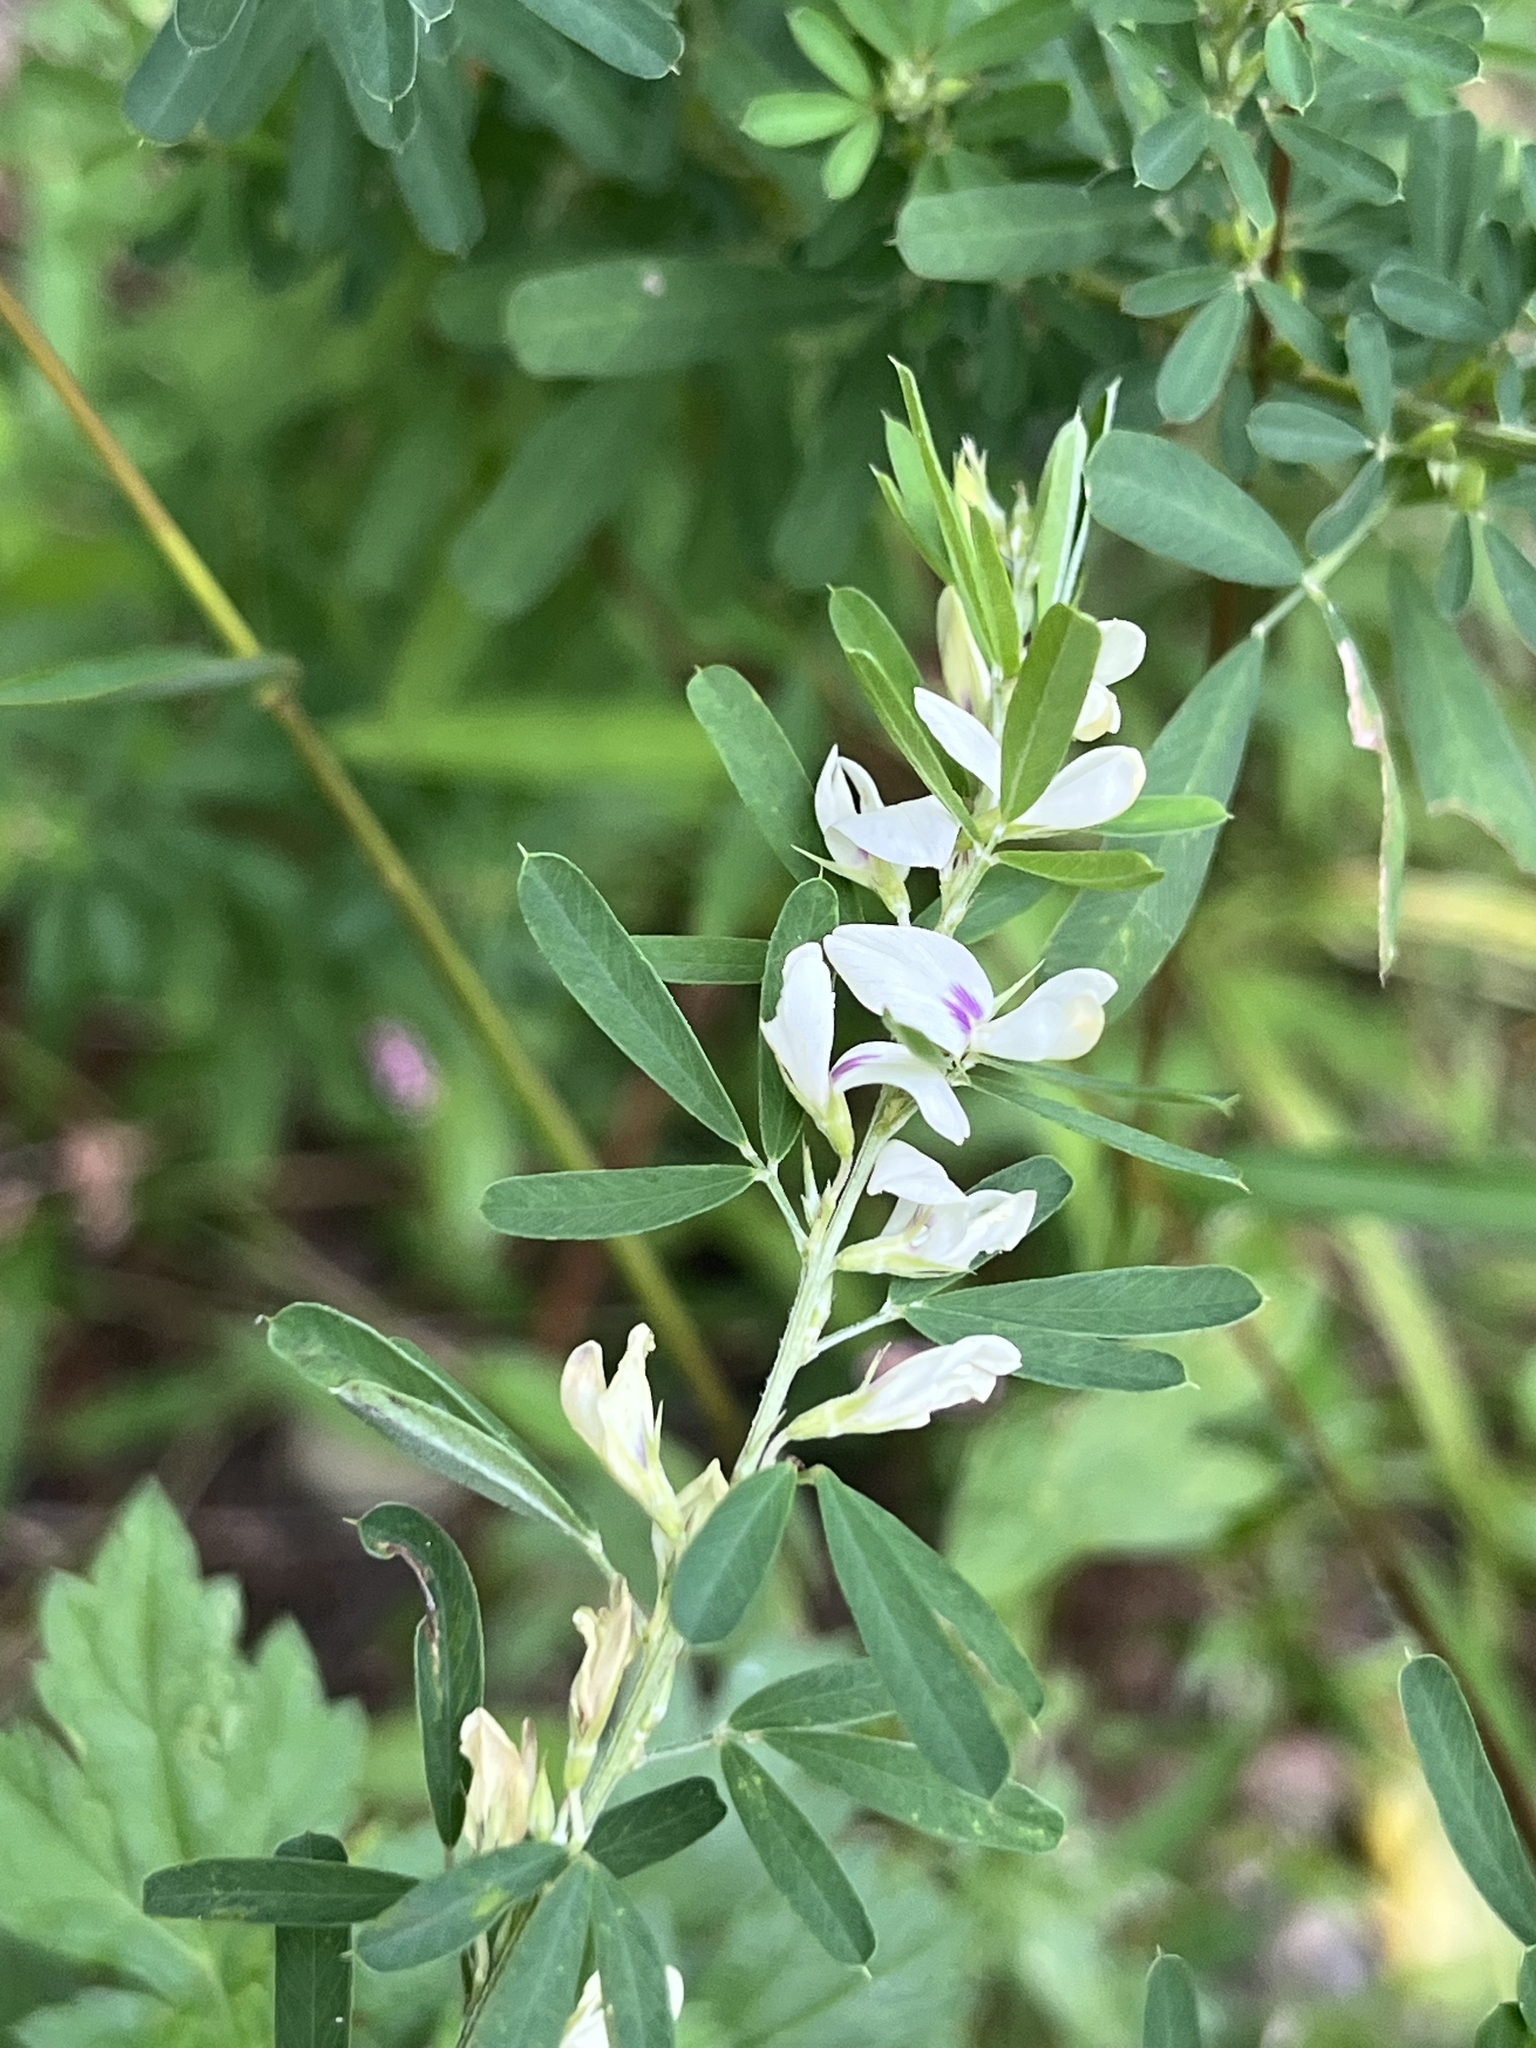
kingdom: Plantae
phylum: Tracheophyta
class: Magnoliopsida
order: Fabales
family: Fabaceae
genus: Lespedeza
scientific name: Lespedeza cuneata
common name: Chinese bush-clover
